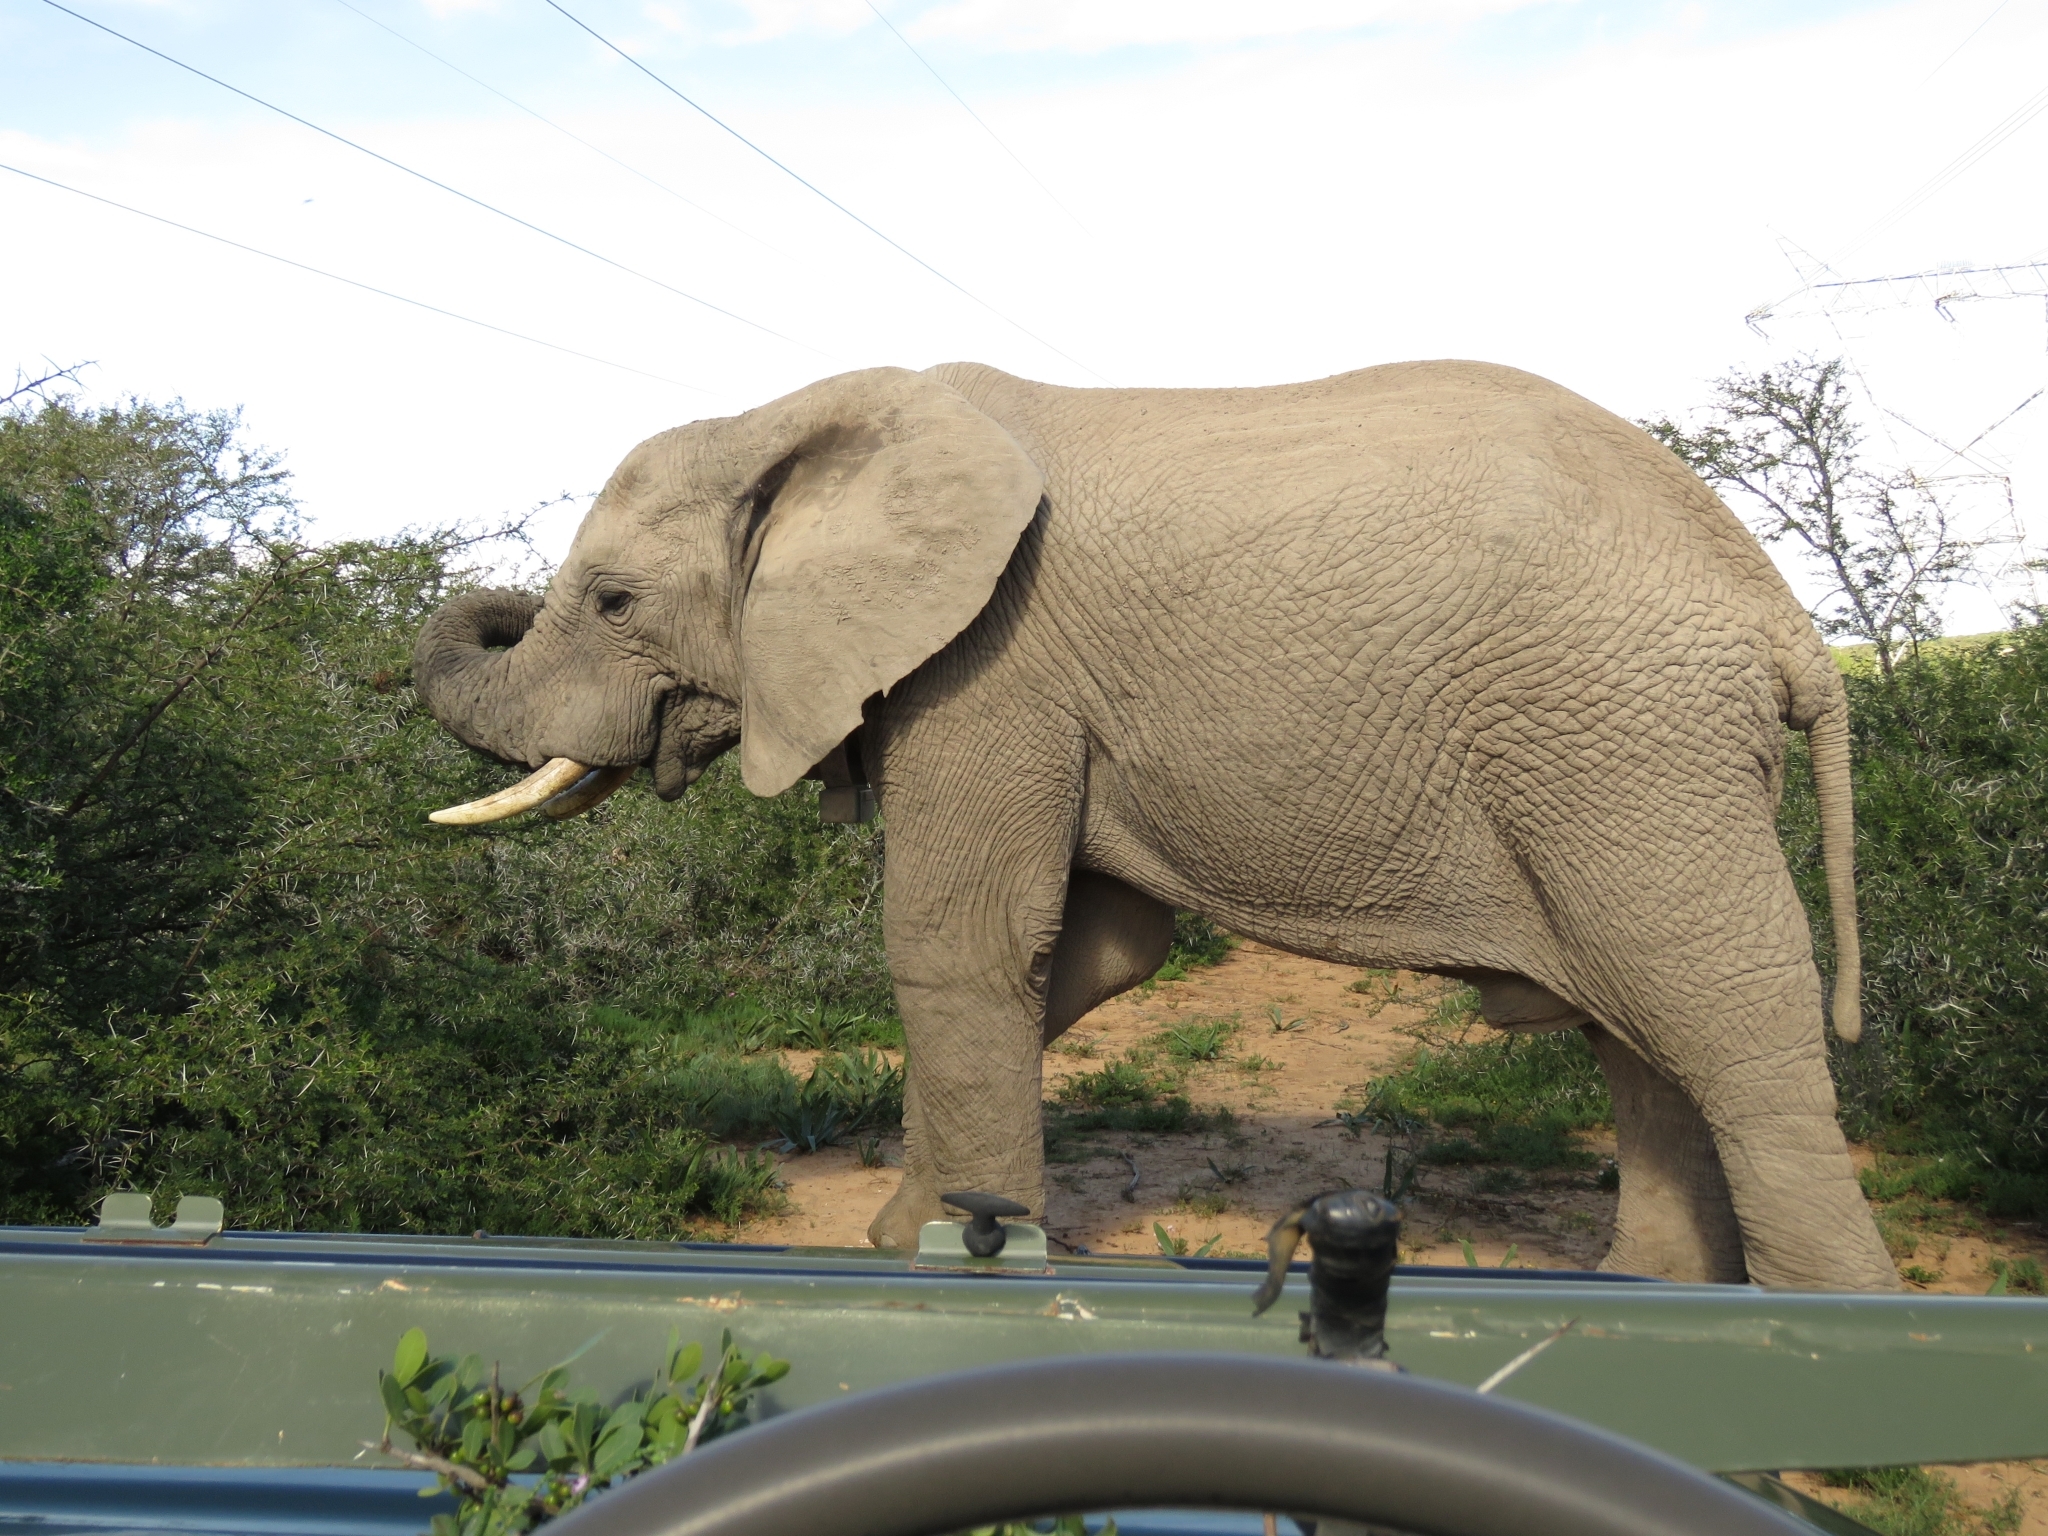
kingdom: Animalia
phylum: Chordata
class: Mammalia
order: Proboscidea
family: Elephantidae
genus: Loxodonta
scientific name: Loxodonta africana
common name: African elephant
